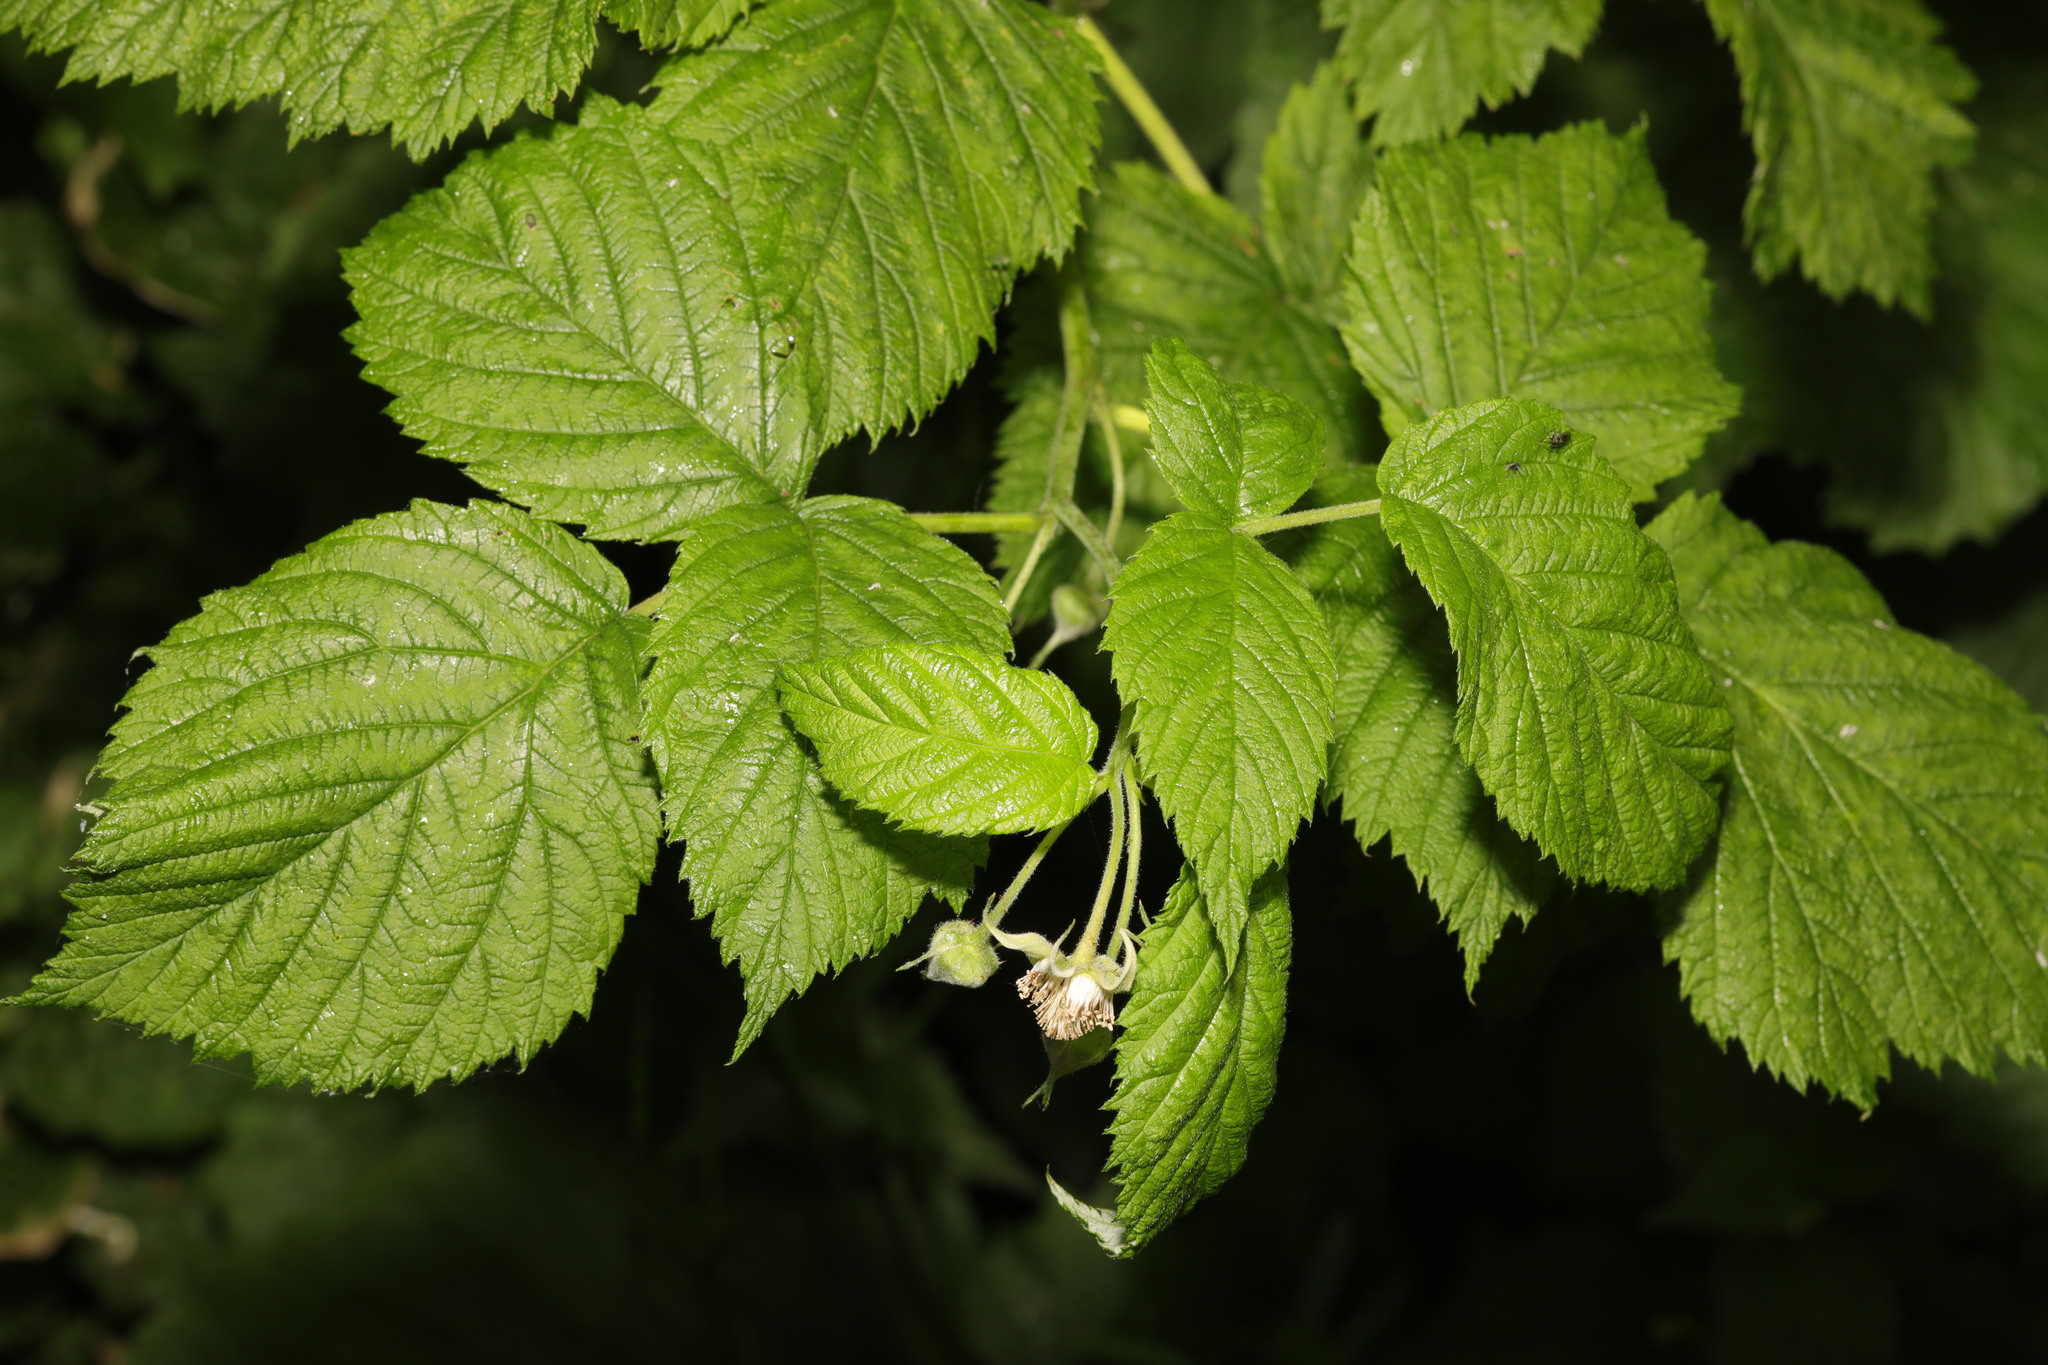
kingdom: Plantae
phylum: Tracheophyta
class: Magnoliopsida
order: Rosales
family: Rosaceae
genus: Rubus
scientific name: Rubus idaeus
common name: Raspberry
